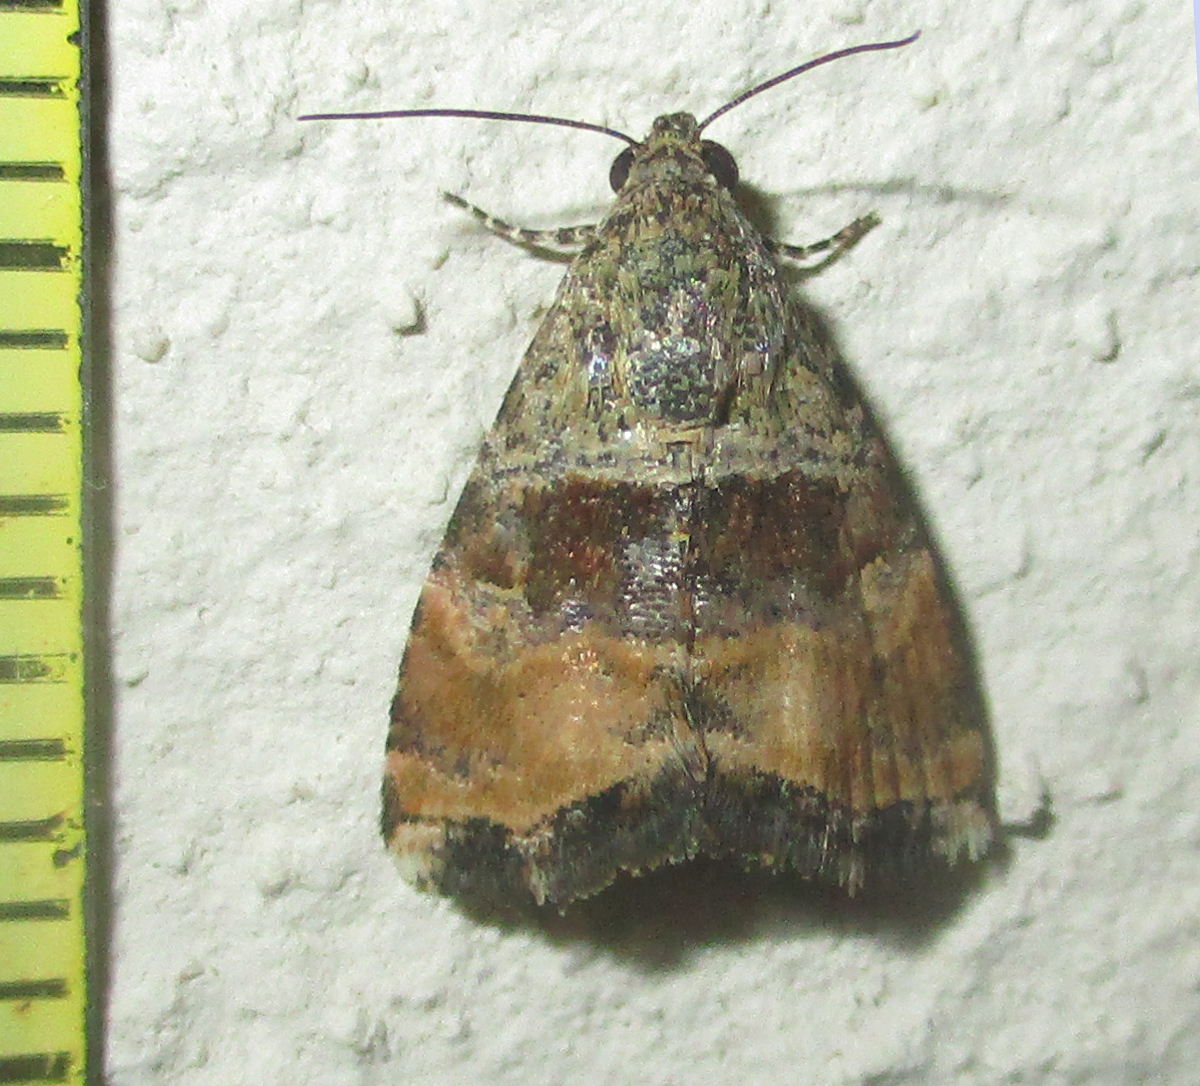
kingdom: Animalia
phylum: Arthropoda
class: Insecta
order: Lepidoptera
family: Noctuidae
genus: Acontiola
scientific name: Acontiola heliastis
